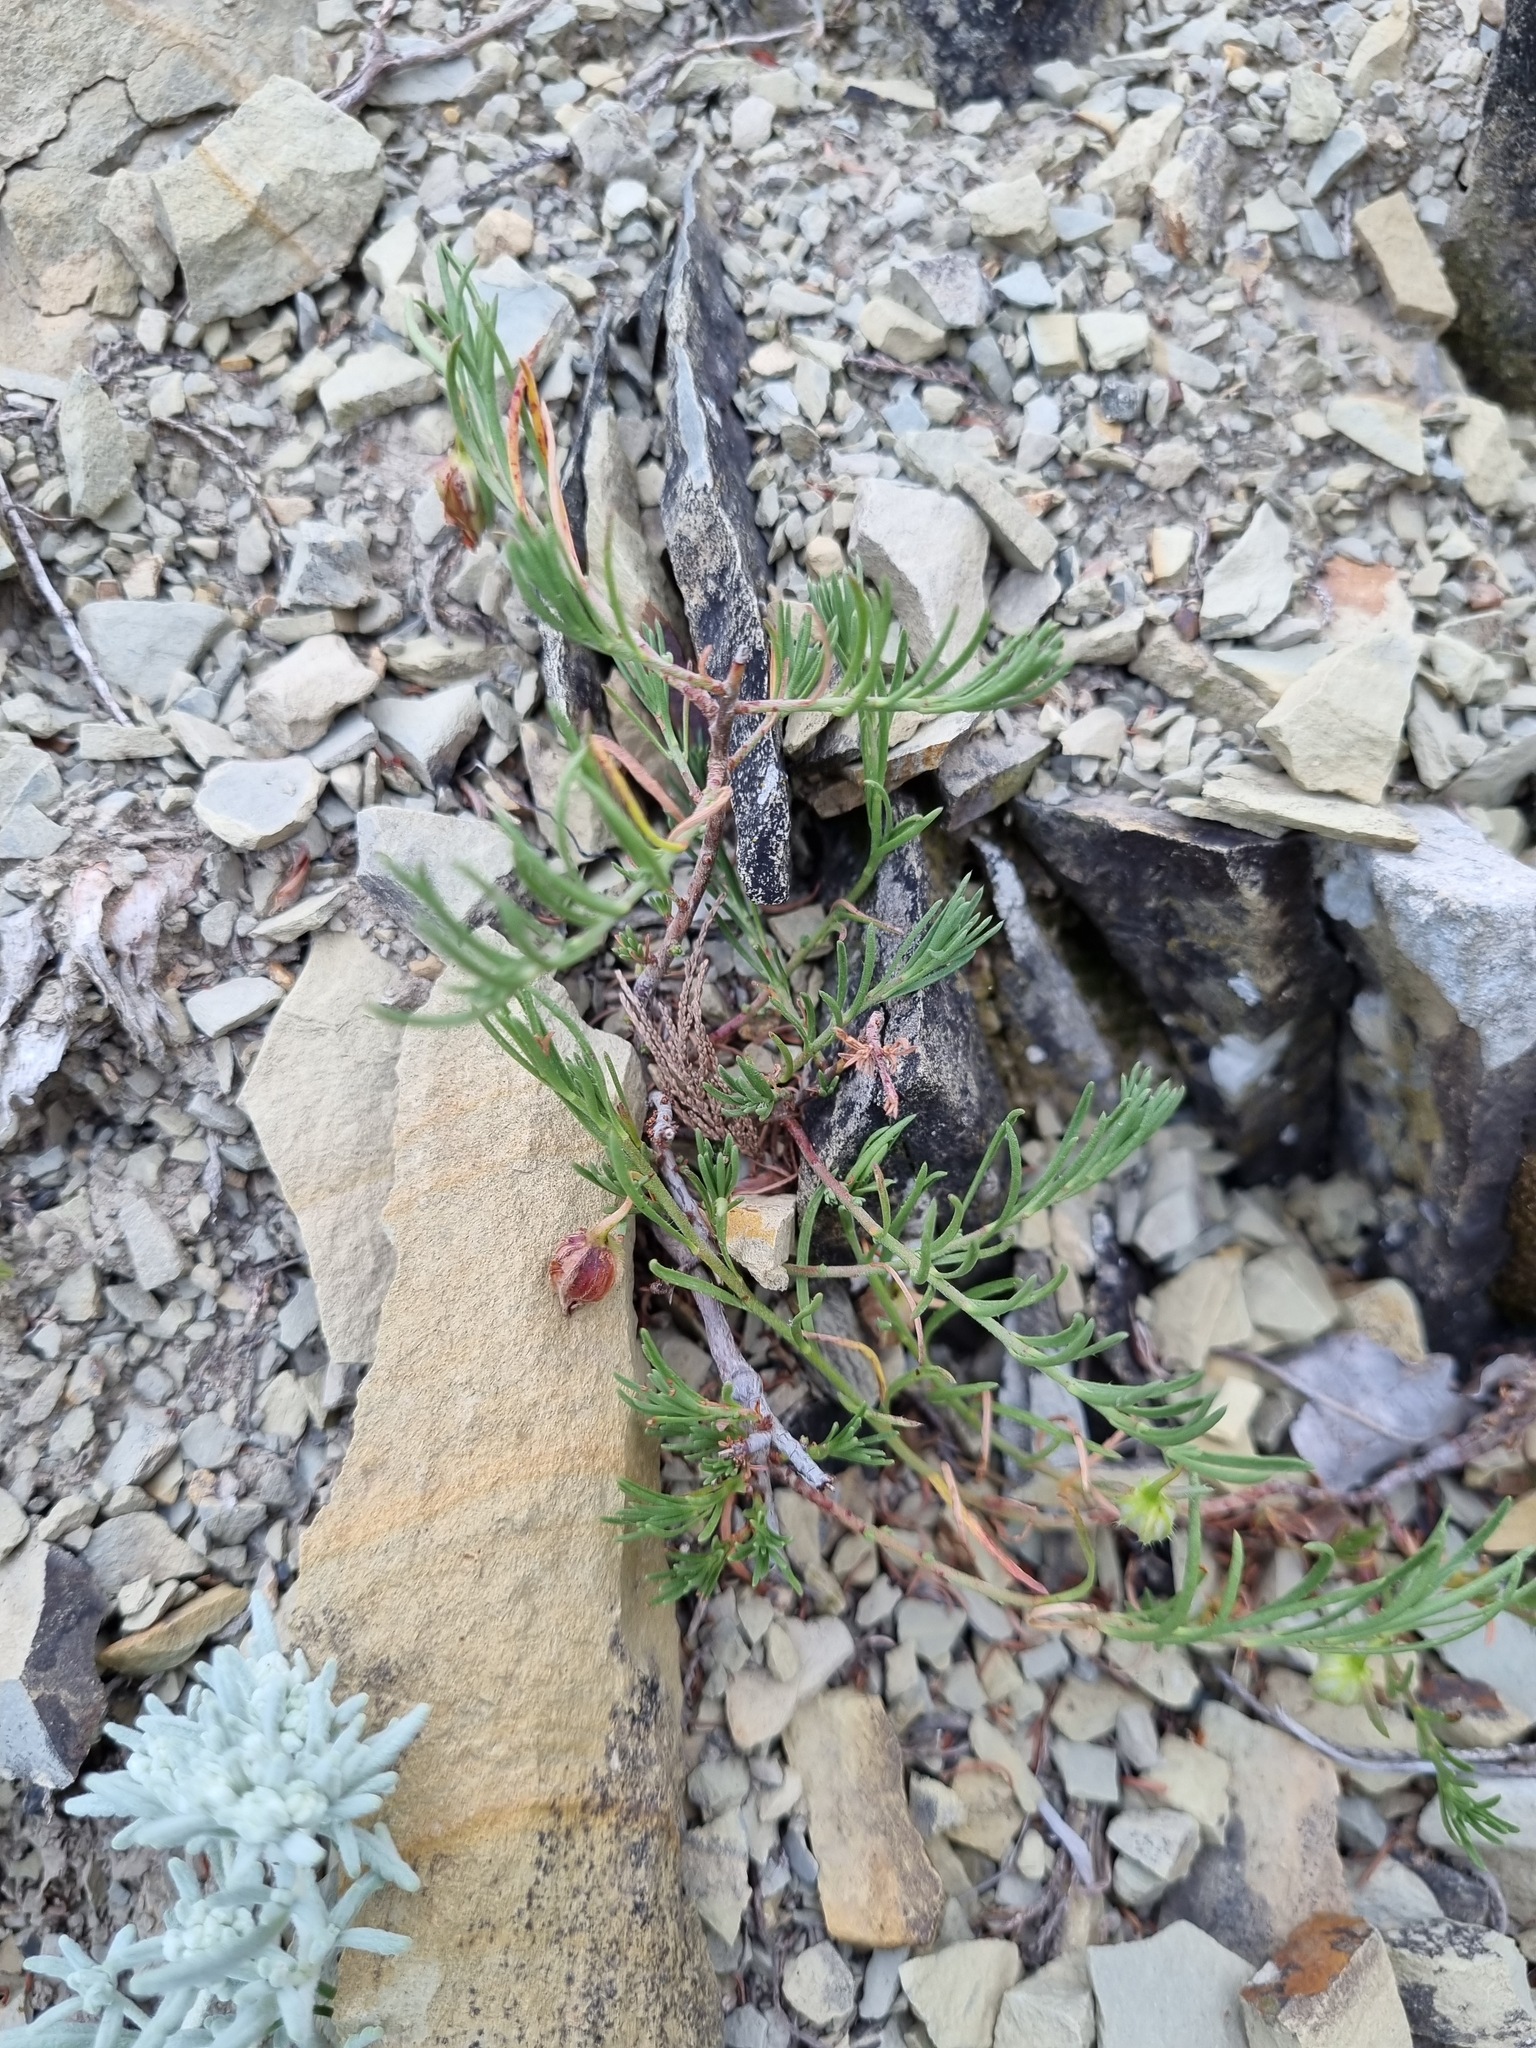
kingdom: Plantae
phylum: Tracheophyta
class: Magnoliopsida
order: Malvales
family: Cistaceae
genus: Fumana
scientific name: Fumana procumbens
